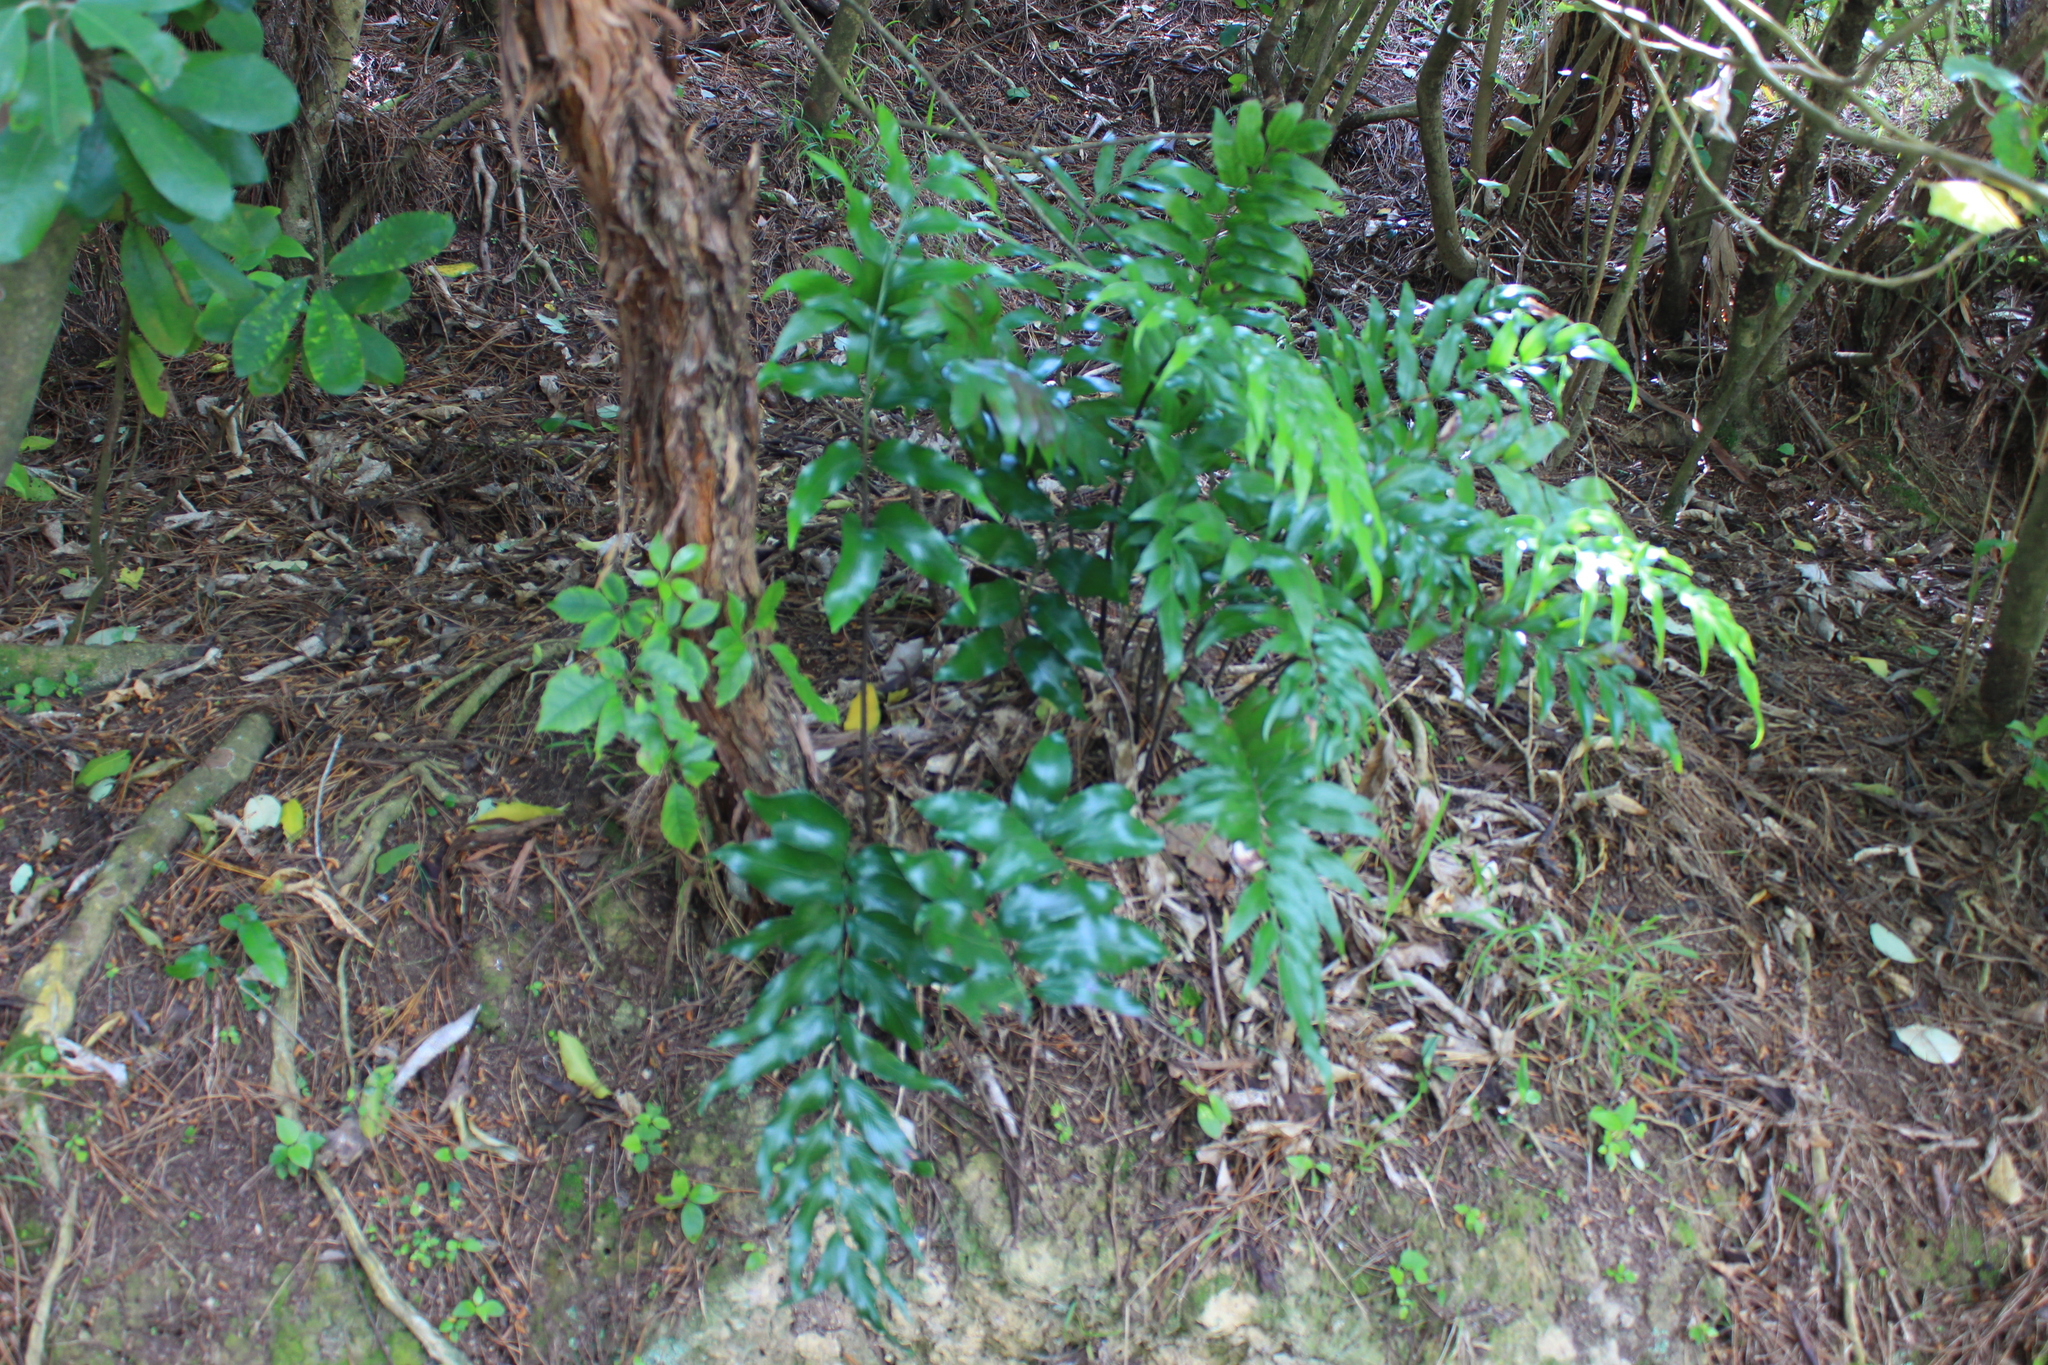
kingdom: Plantae
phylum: Tracheophyta
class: Polypodiopsida
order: Polypodiales
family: Aspleniaceae
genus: Asplenium
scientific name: Asplenium oblongifolium
